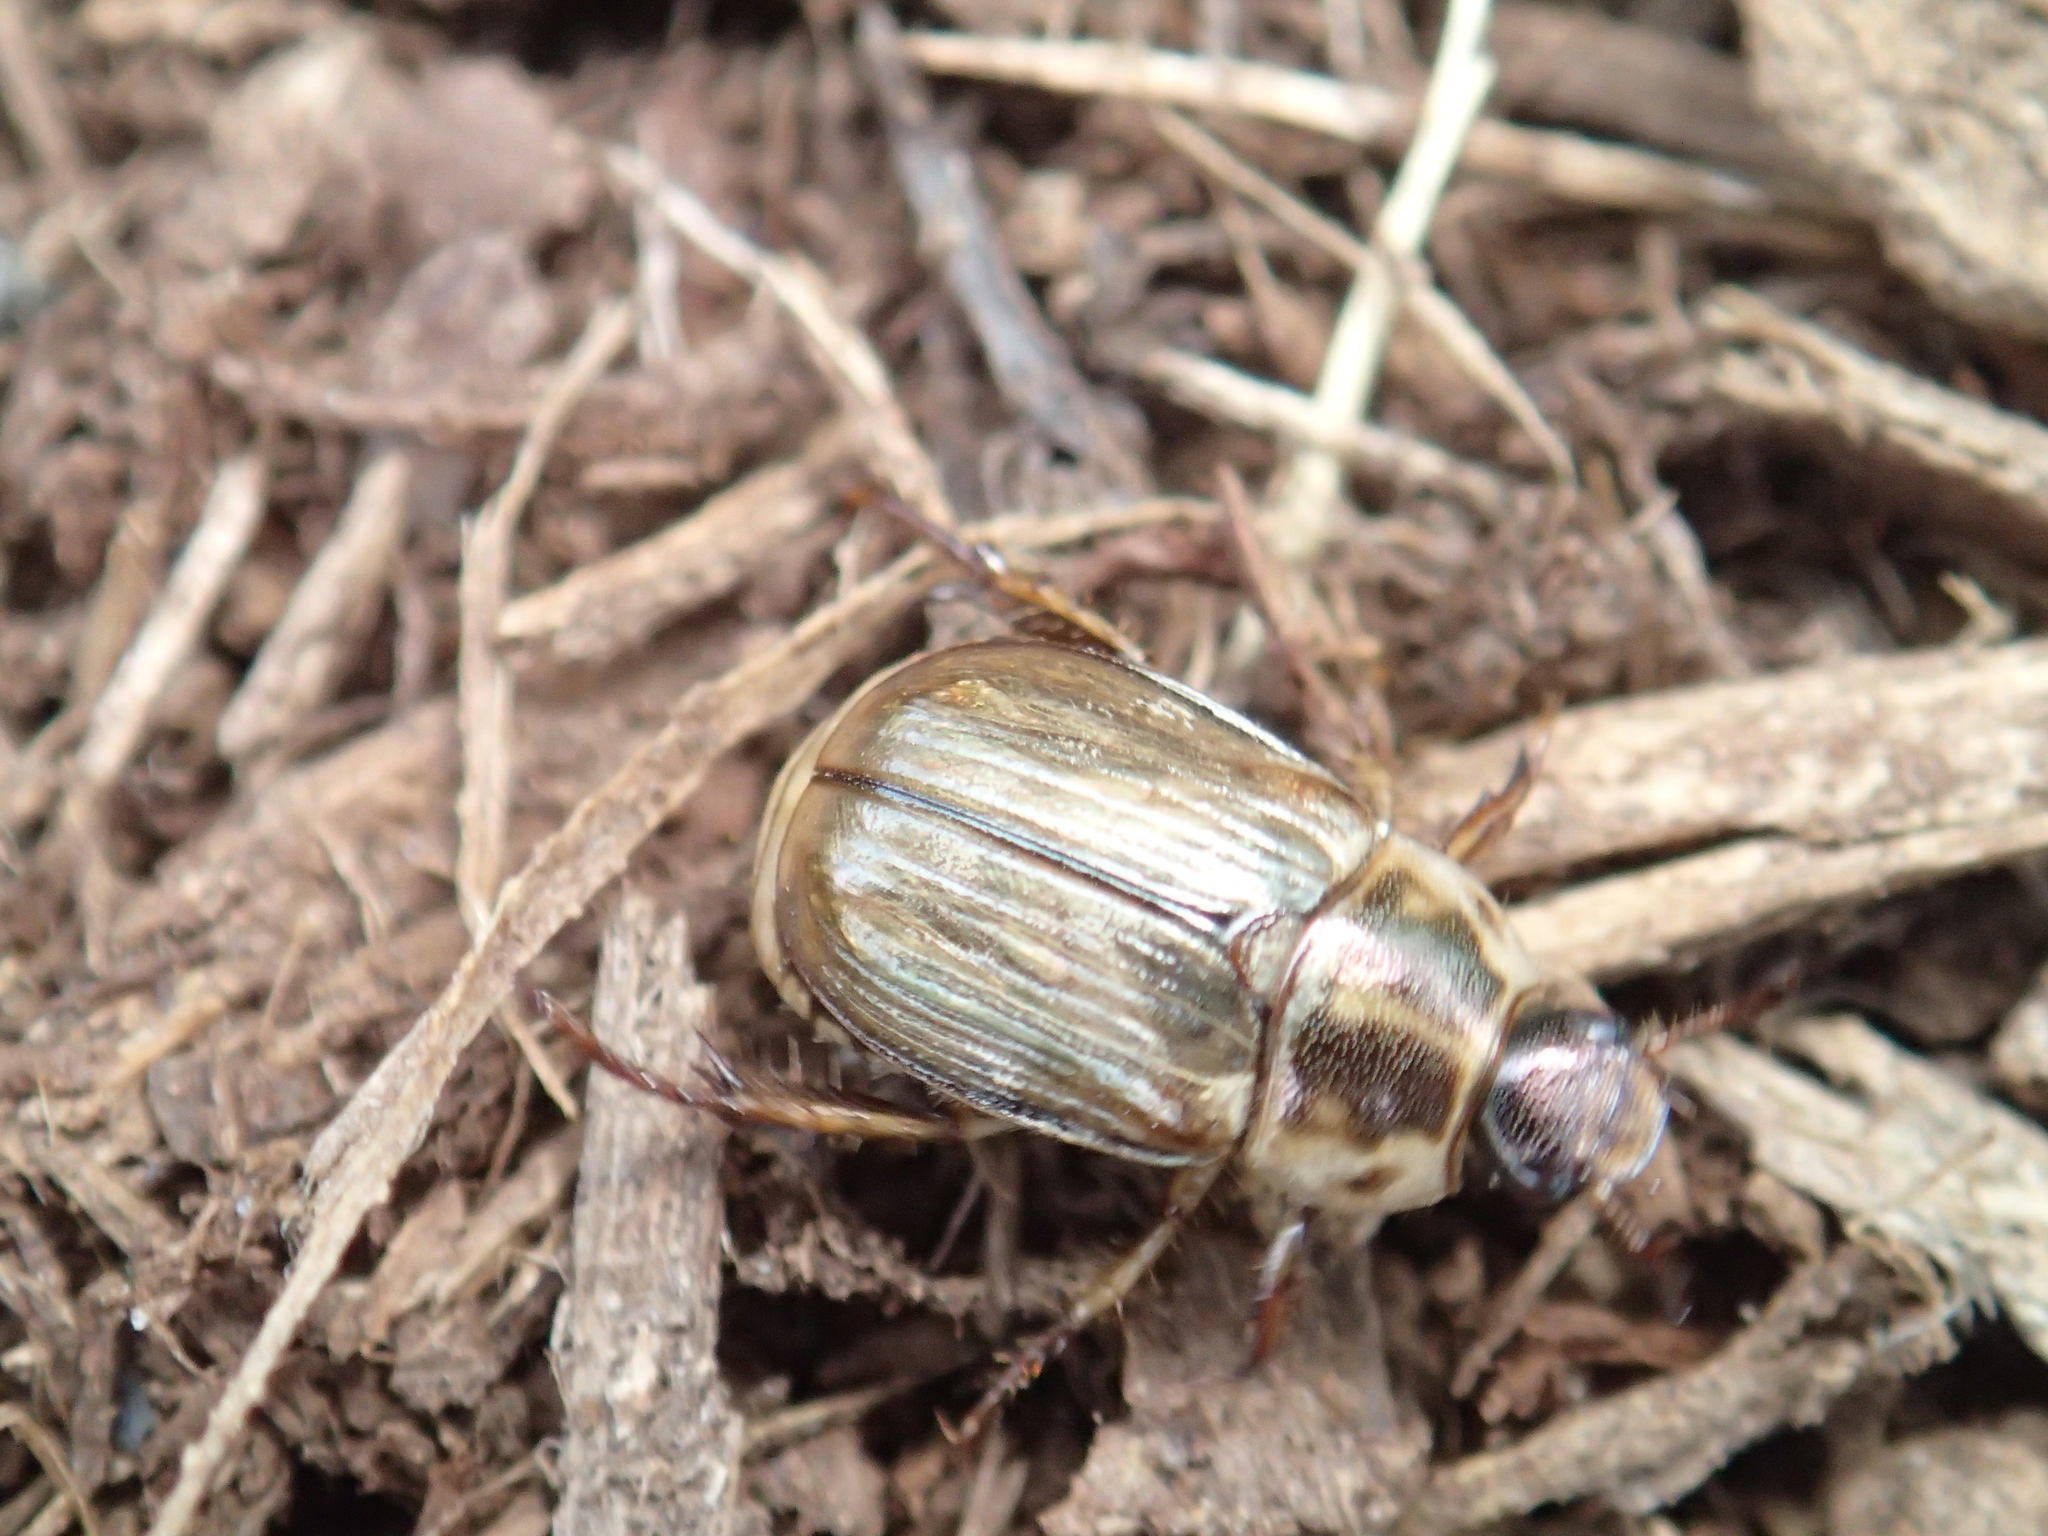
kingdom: Animalia
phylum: Arthropoda
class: Insecta
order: Coleoptera
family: Scarabaeidae
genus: Exomala
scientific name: Exomala orientalis
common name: Oriental beetle
